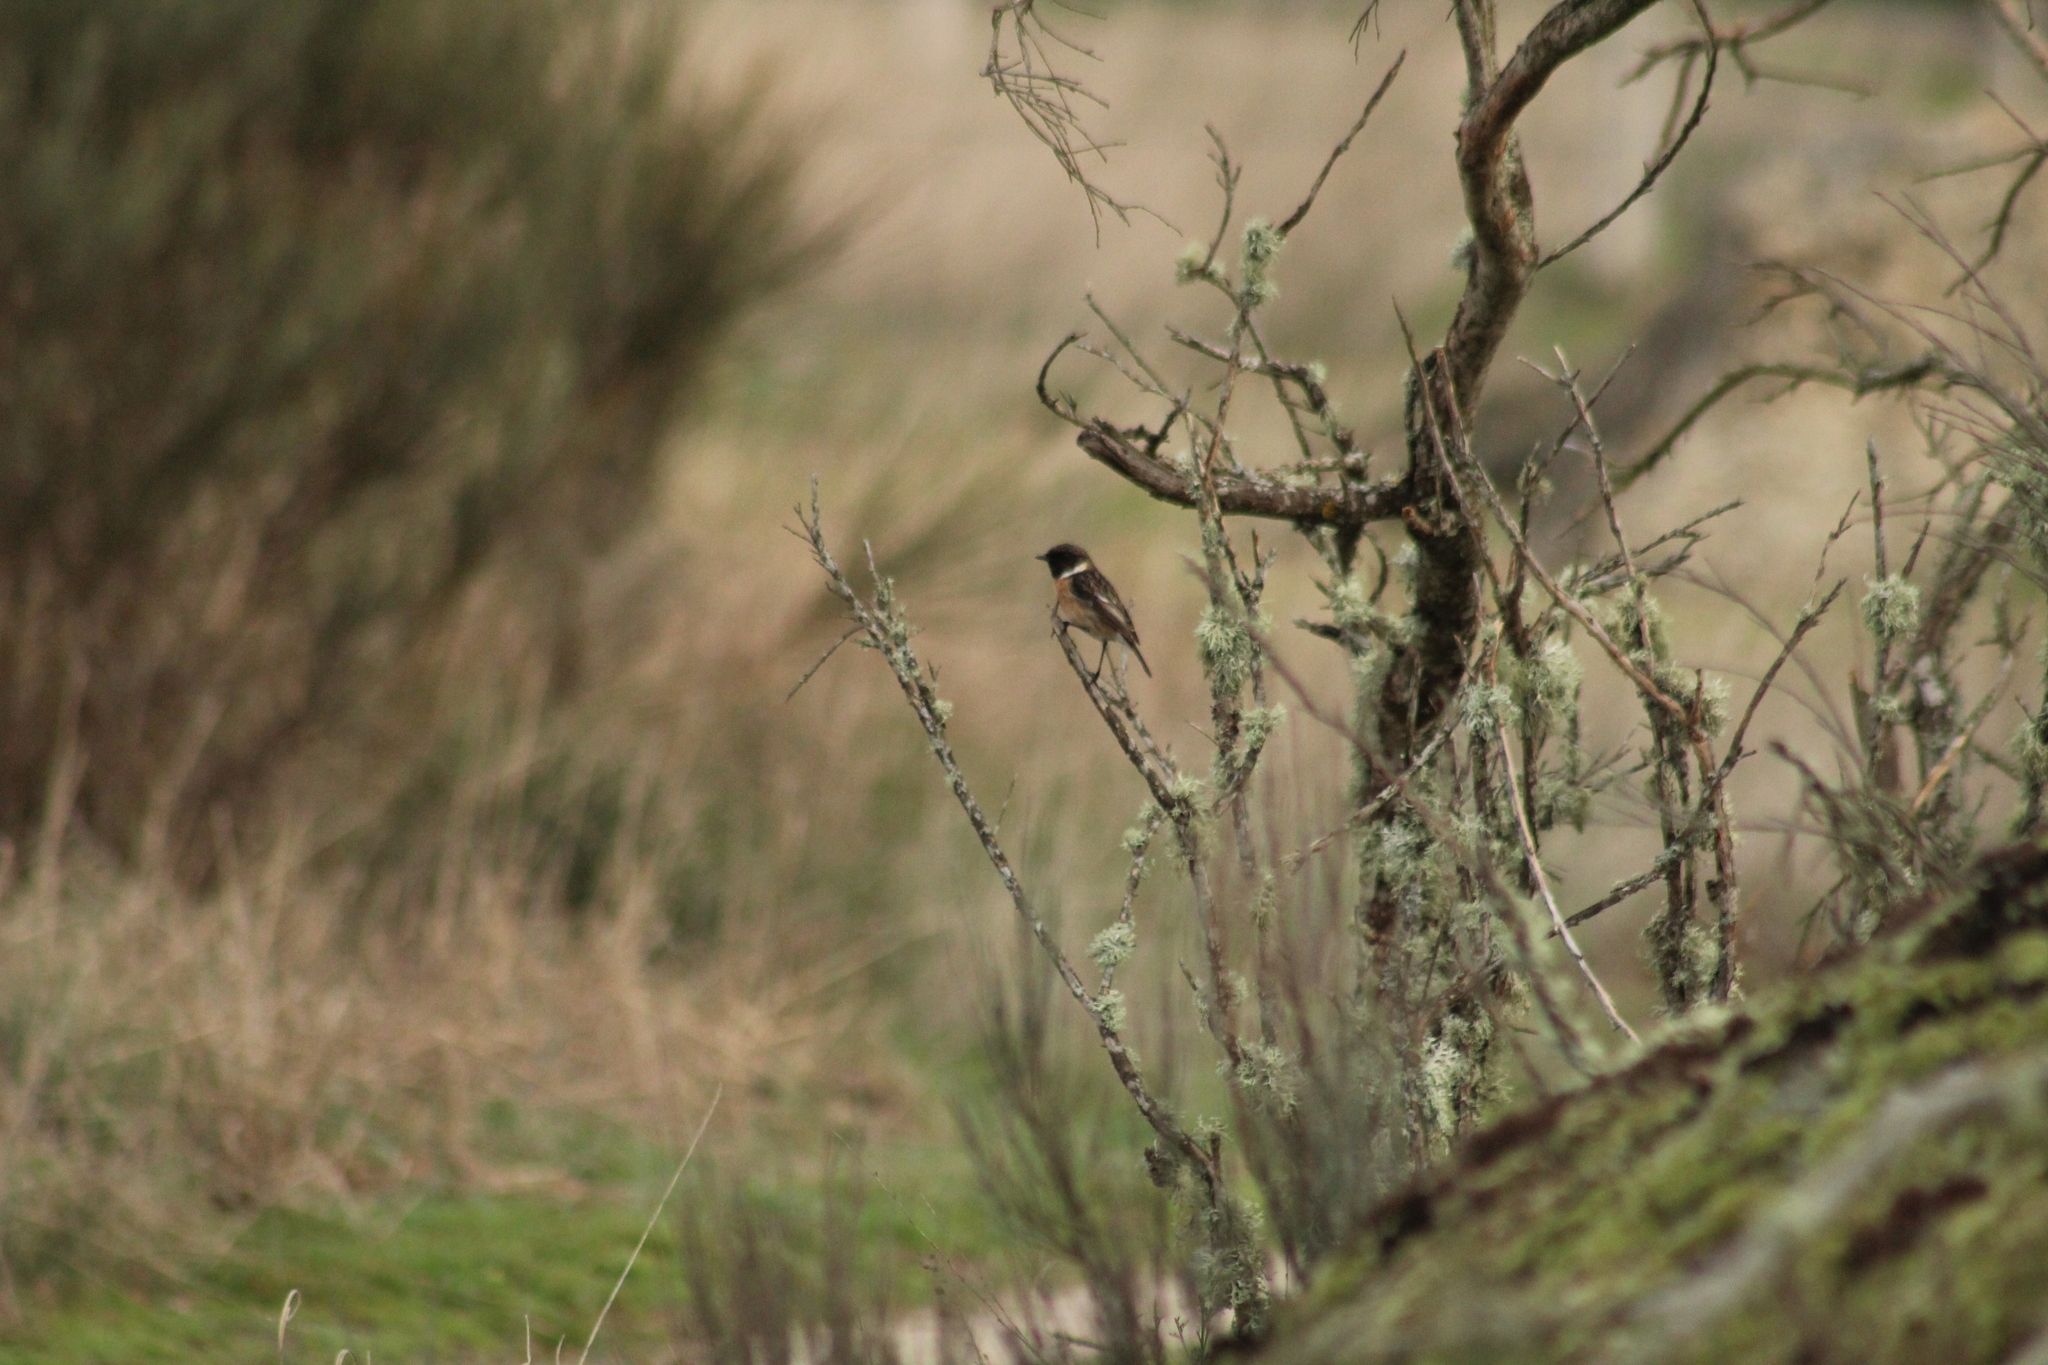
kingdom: Animalia
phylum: Chordata
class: Aves
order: Passeriformes
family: Muscicapidae
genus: Saxicola
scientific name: Saxicola rubicola
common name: European stonechat
